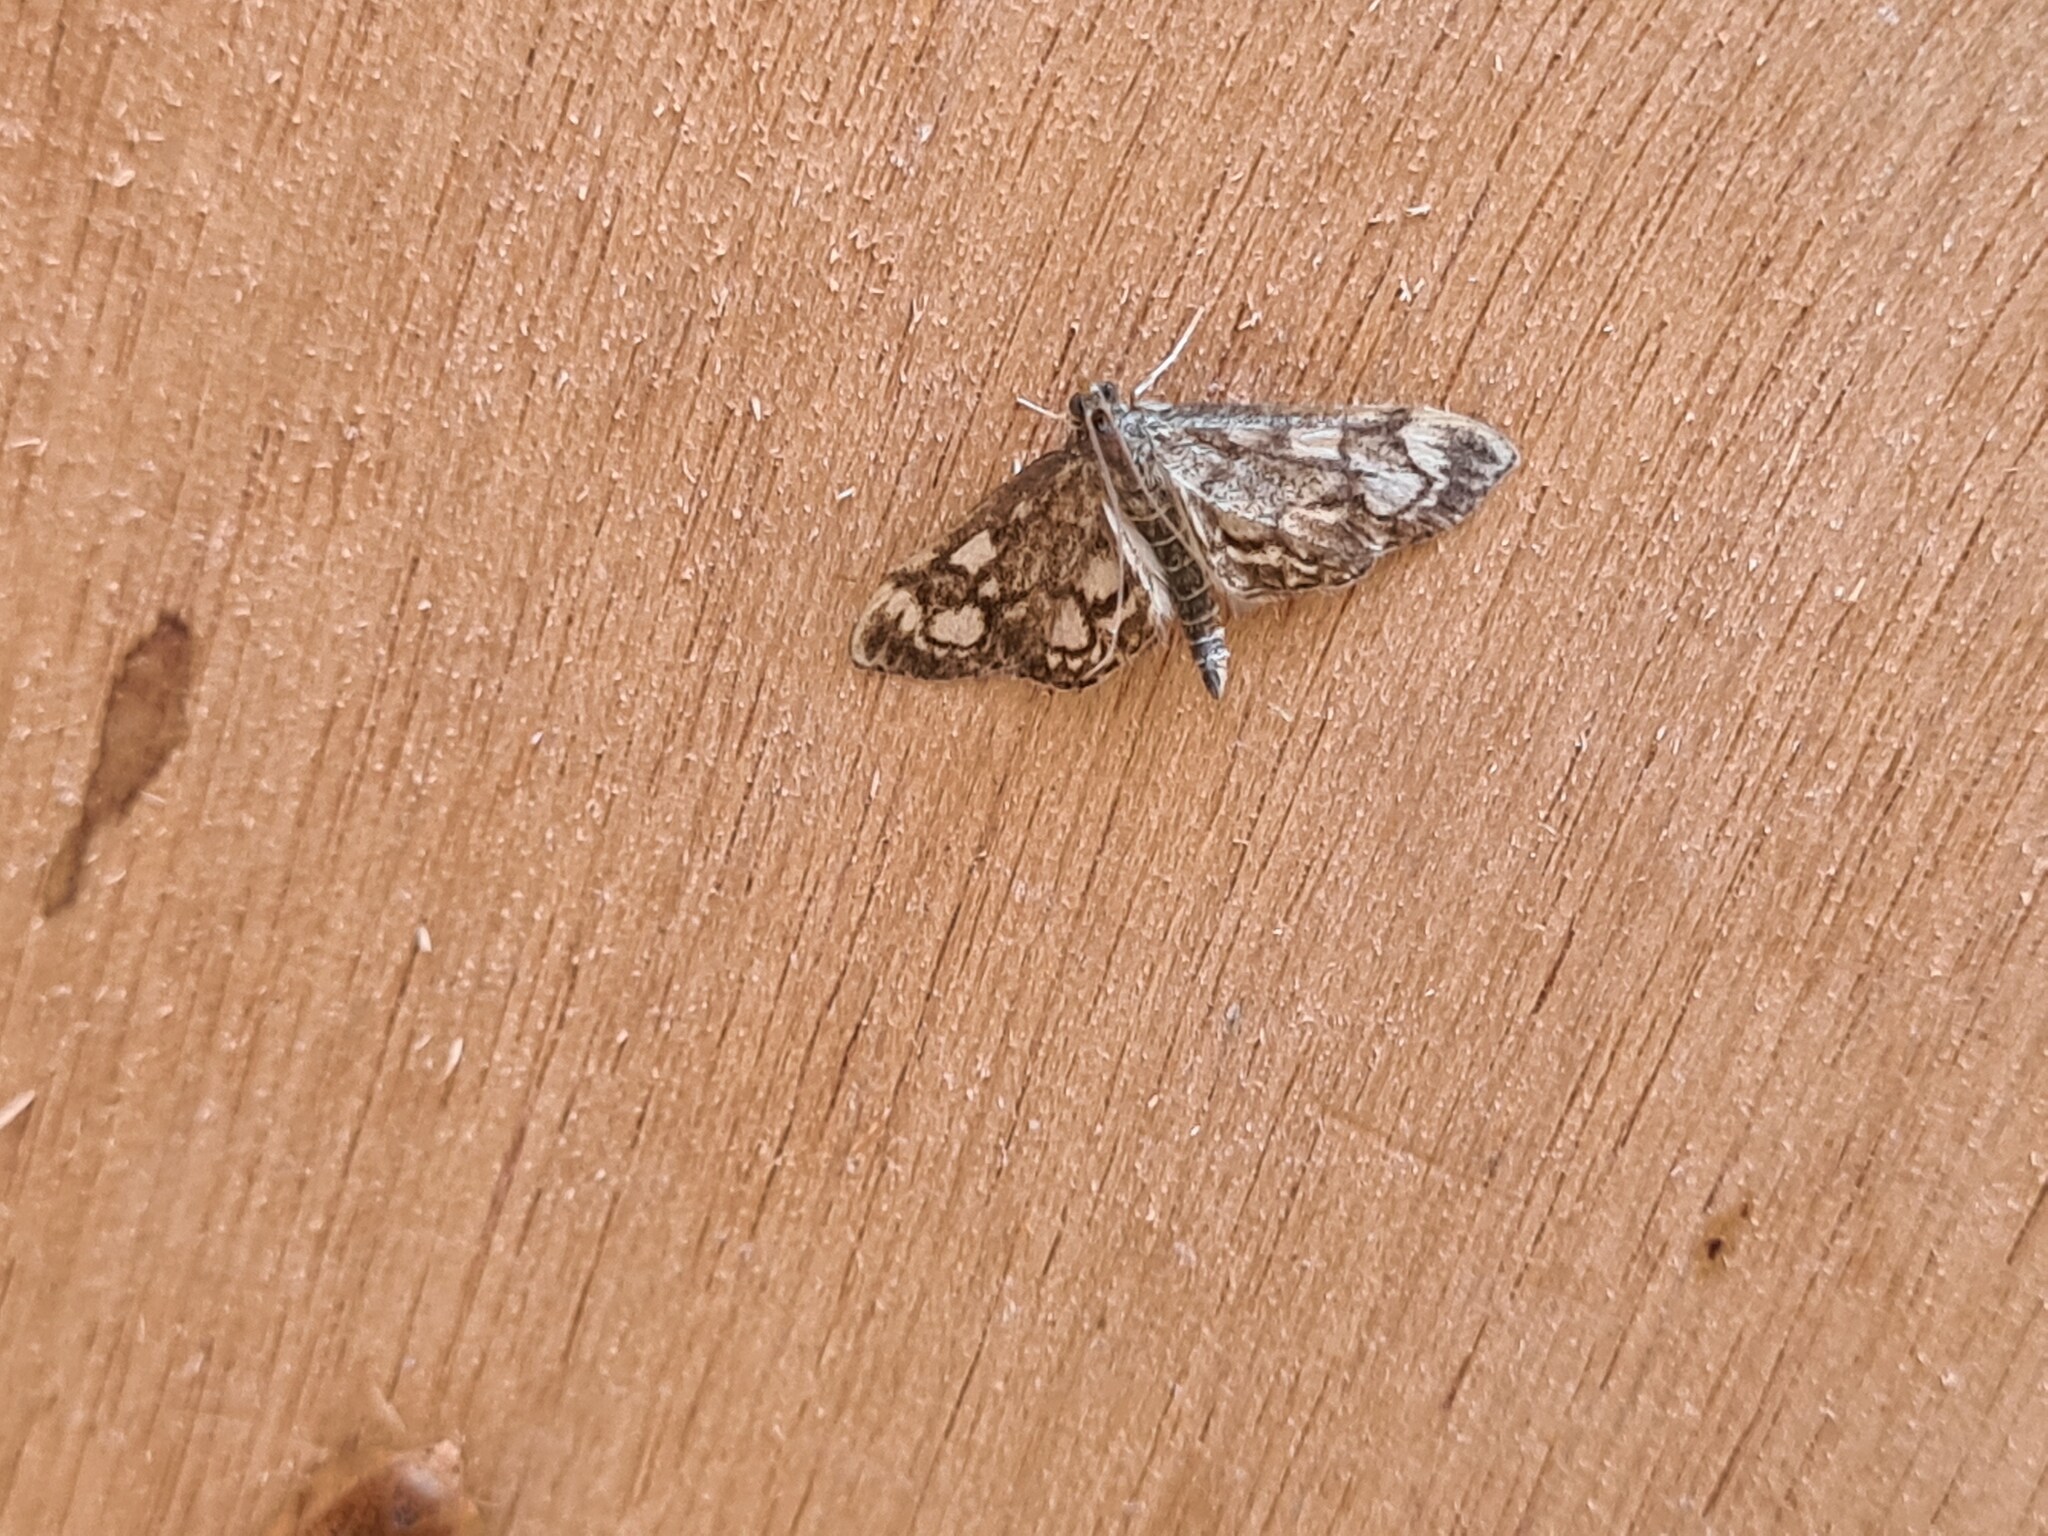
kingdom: Animalia
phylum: Arthropoda
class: Insecta
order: Lepidoptera
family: Crambidae
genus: Anania
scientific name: Anania coronata
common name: Elder pearl
